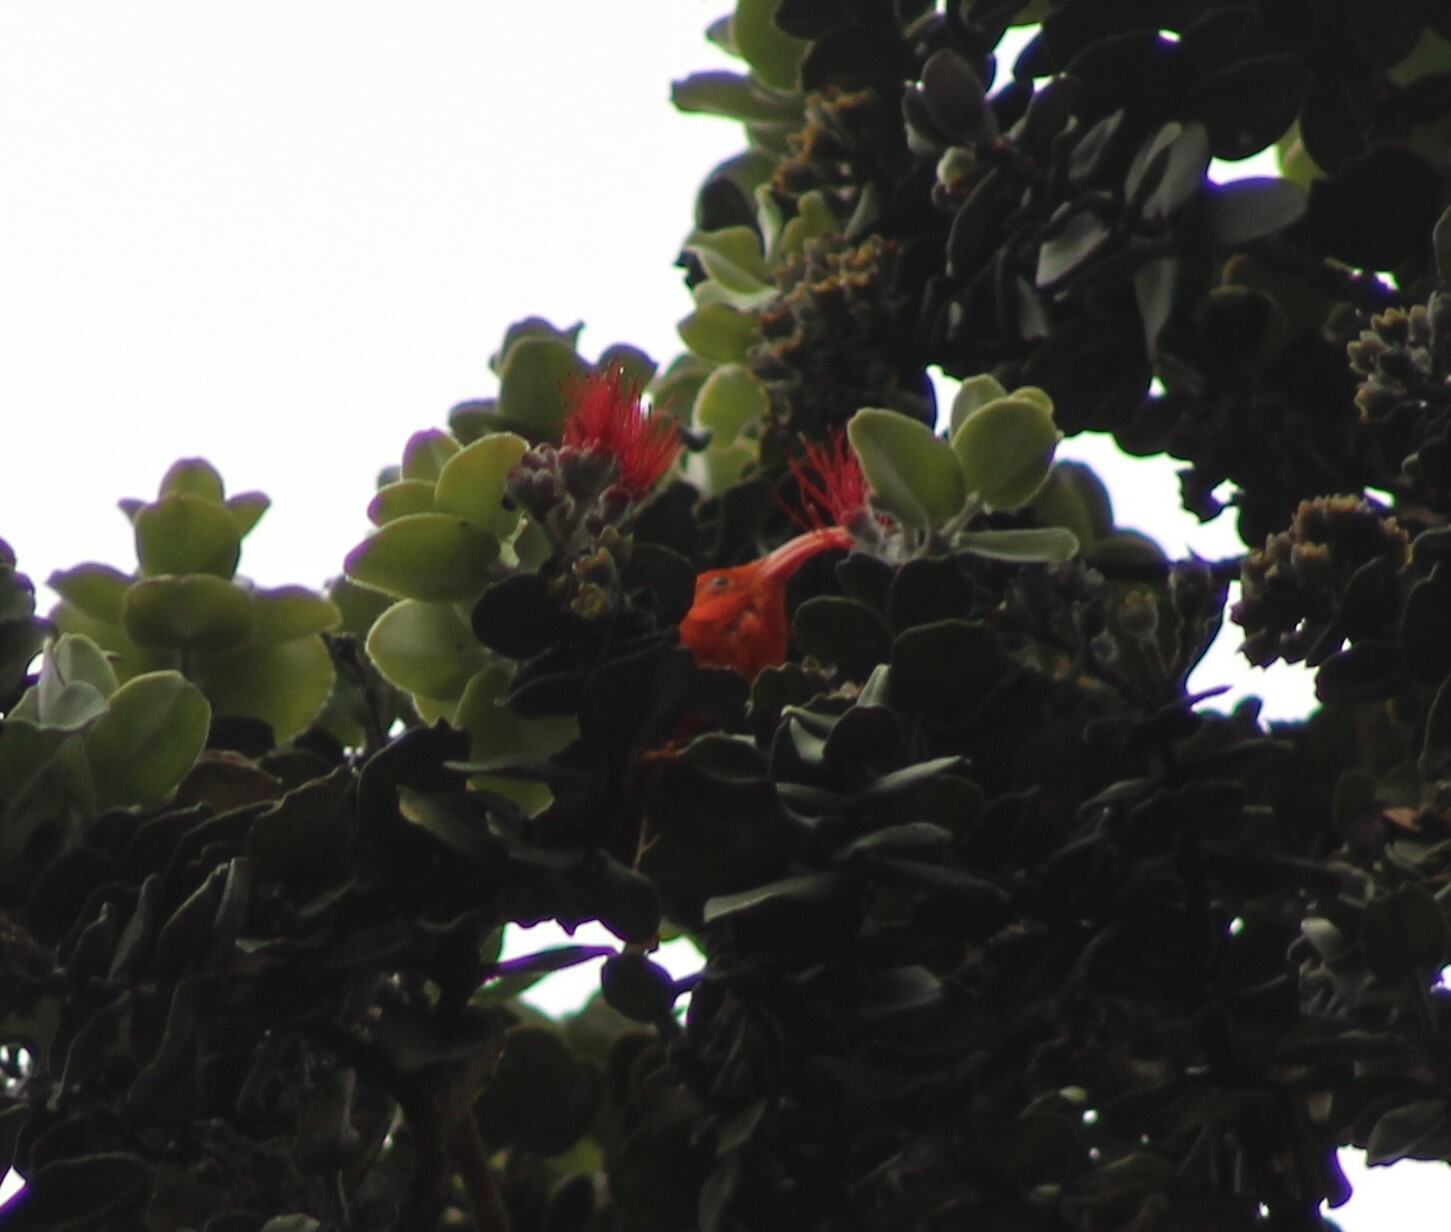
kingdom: Animalia
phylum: Chordata
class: Aves
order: Passeriformes
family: Fringillidae
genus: Vestiaria
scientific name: Vestiaria coccinea
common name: Iiwi
